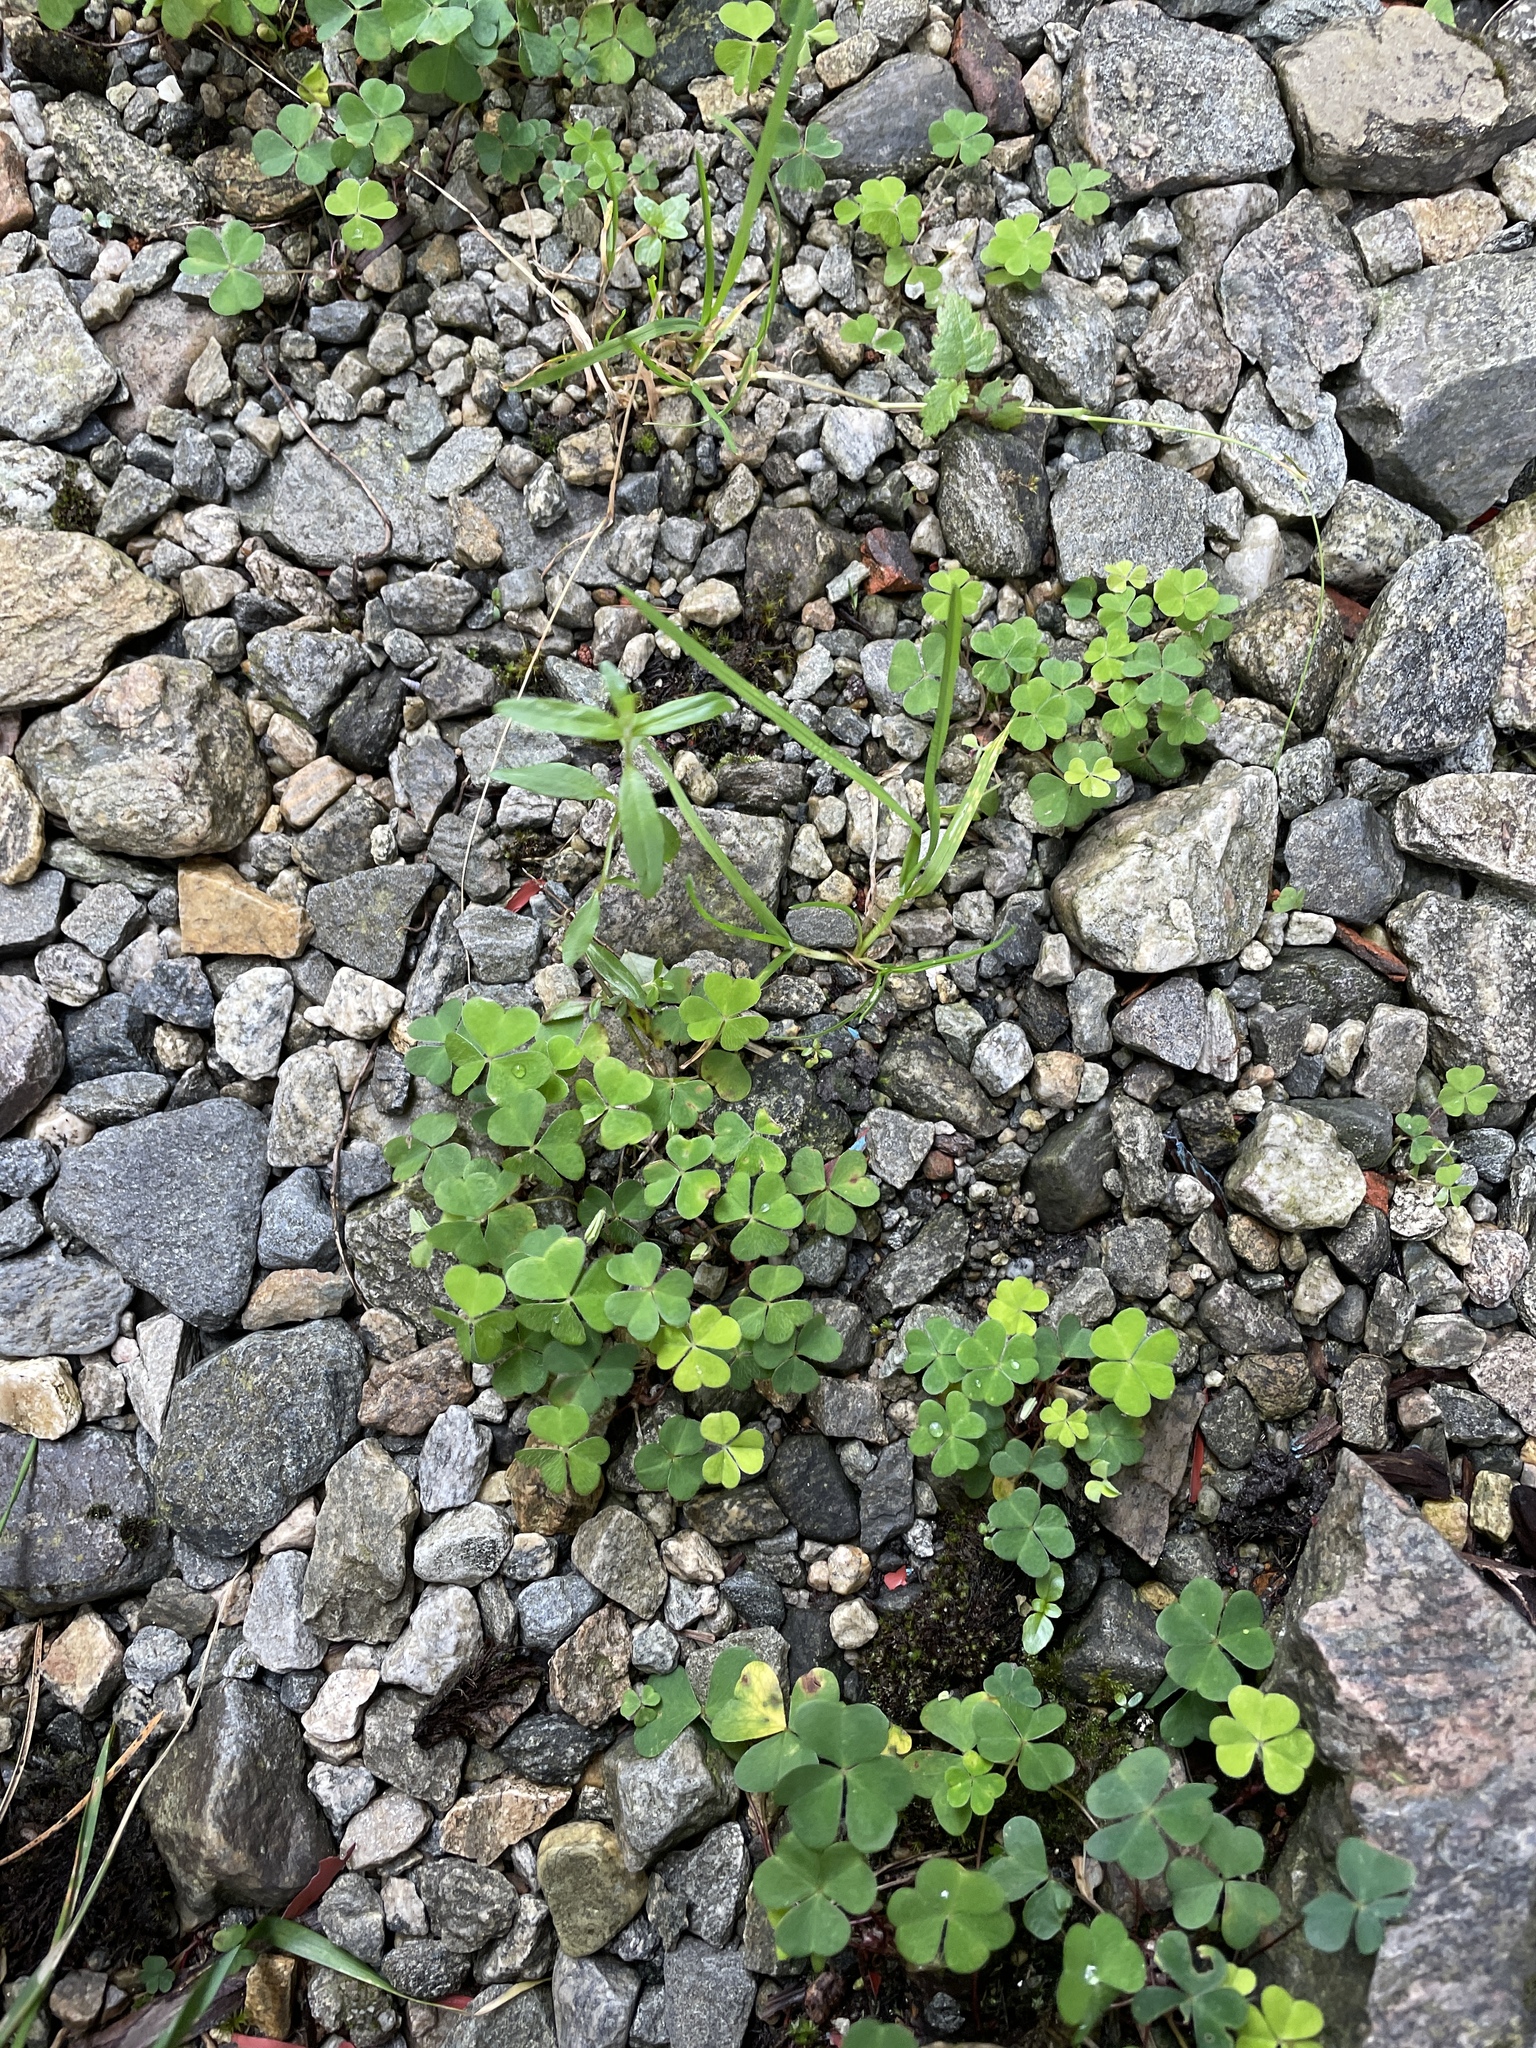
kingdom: Plantae
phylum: Tracheophyta
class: Magnoliopsida
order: Oxalidales
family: Oxalidaceae
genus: Oxalis
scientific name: Oxalis acetosella
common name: Wood-sorrel
